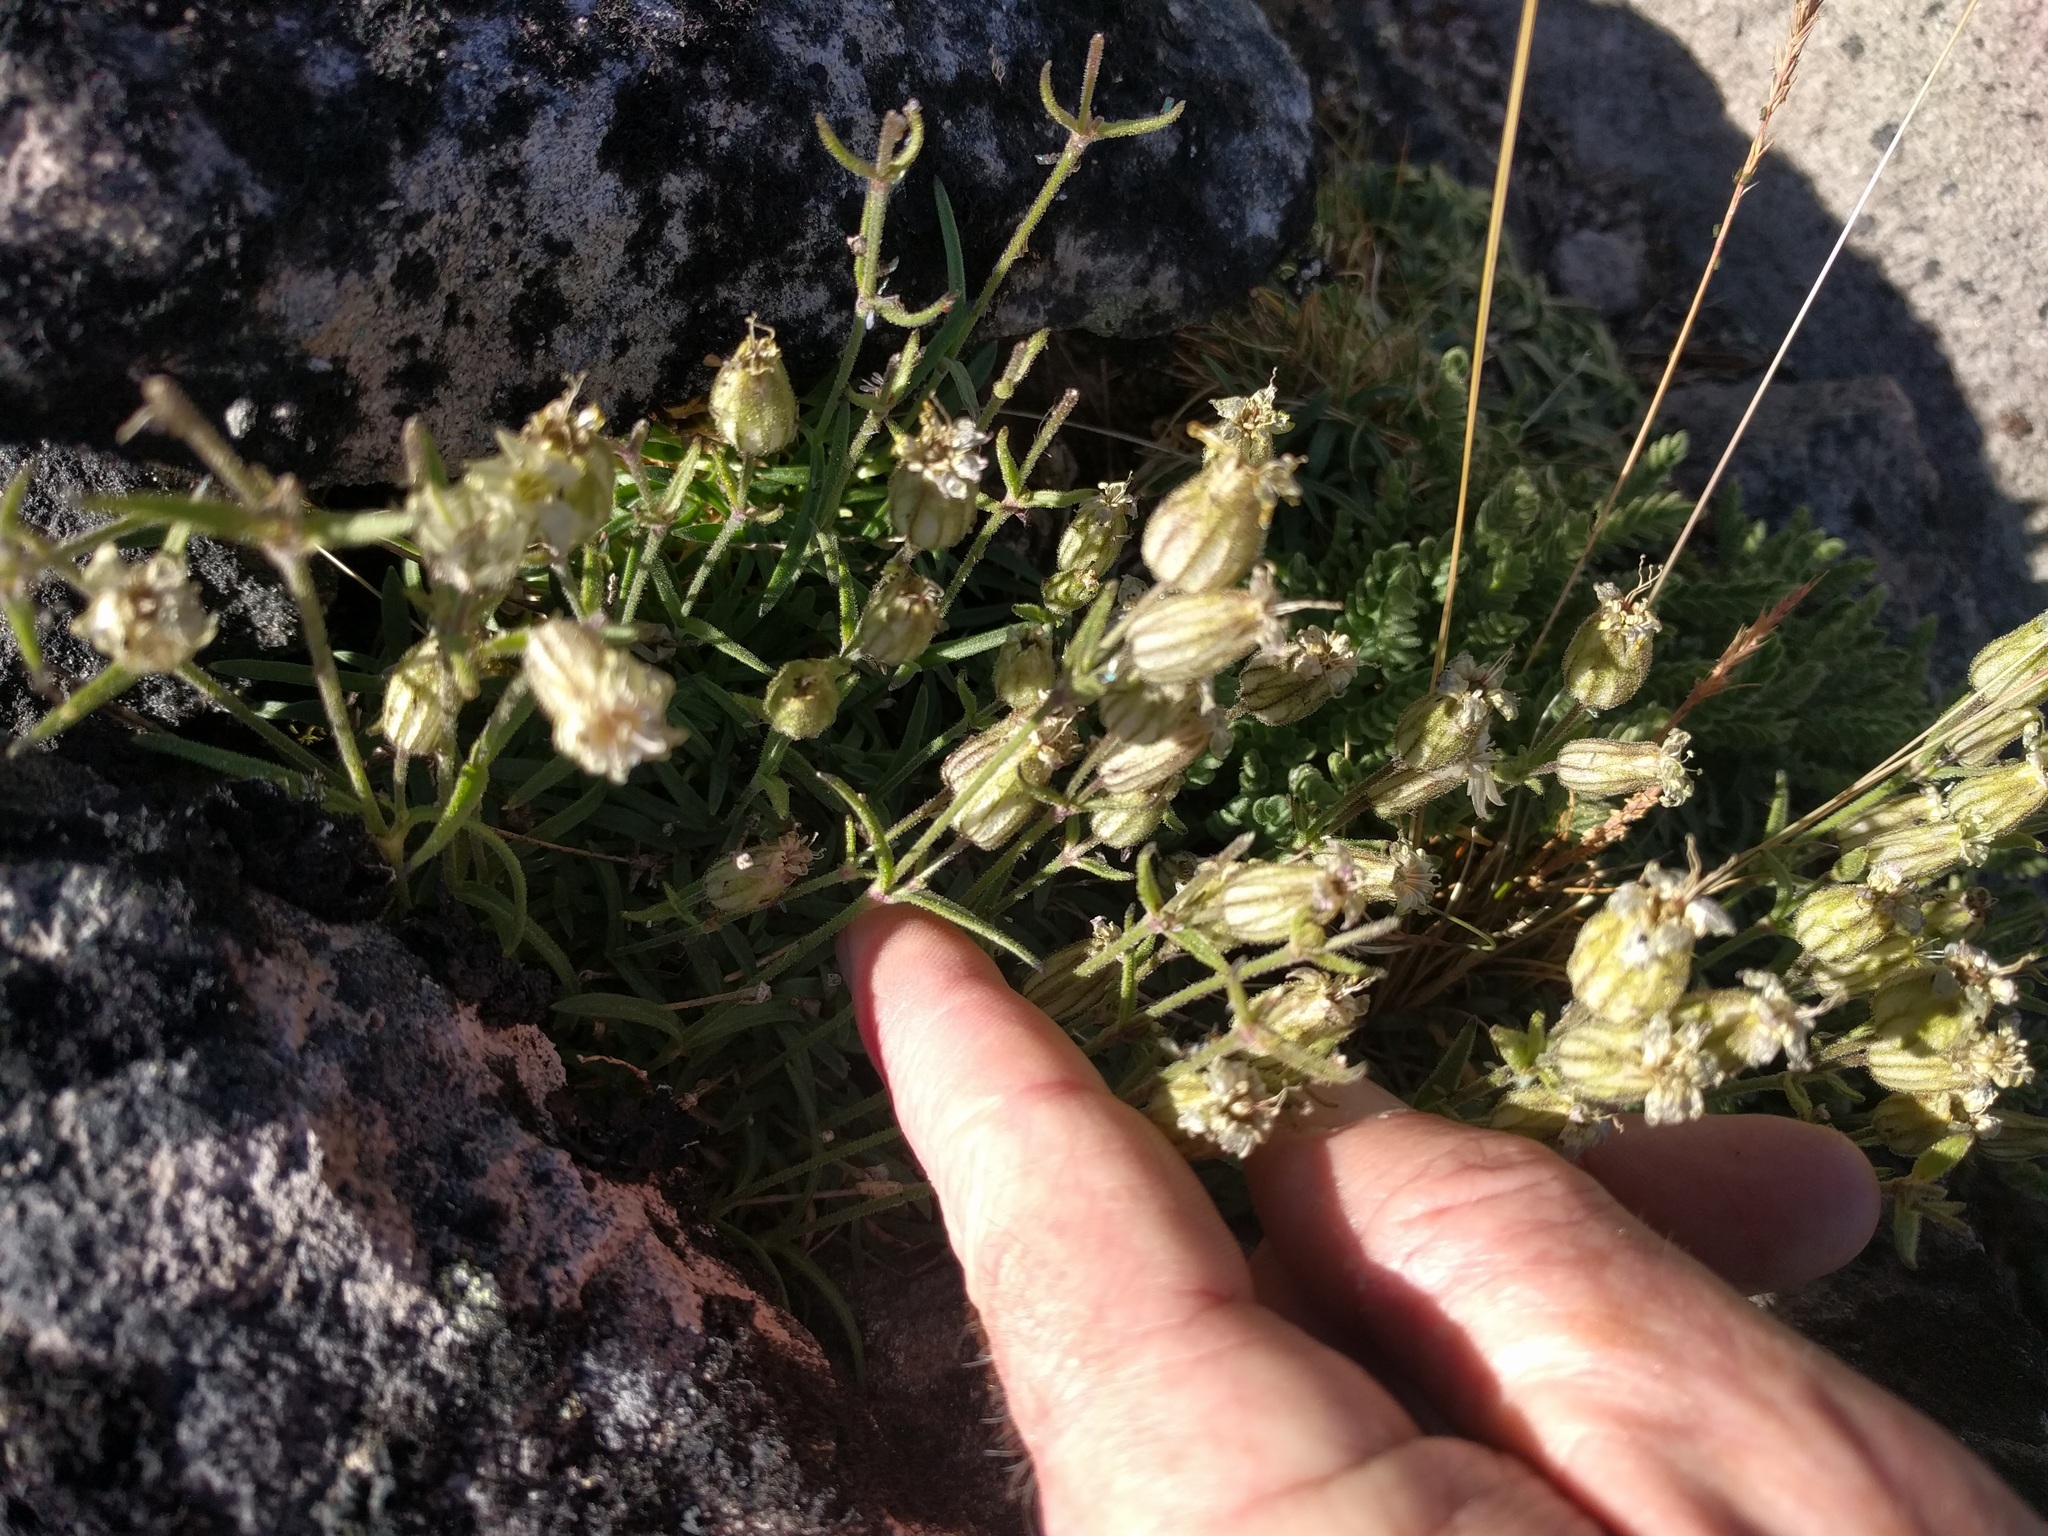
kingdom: Plantae
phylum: Tracheophyta
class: Magnoliopsida
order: Caryophyllales
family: Caryophyllaceae
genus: Silene
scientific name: Silene suksdorfii
